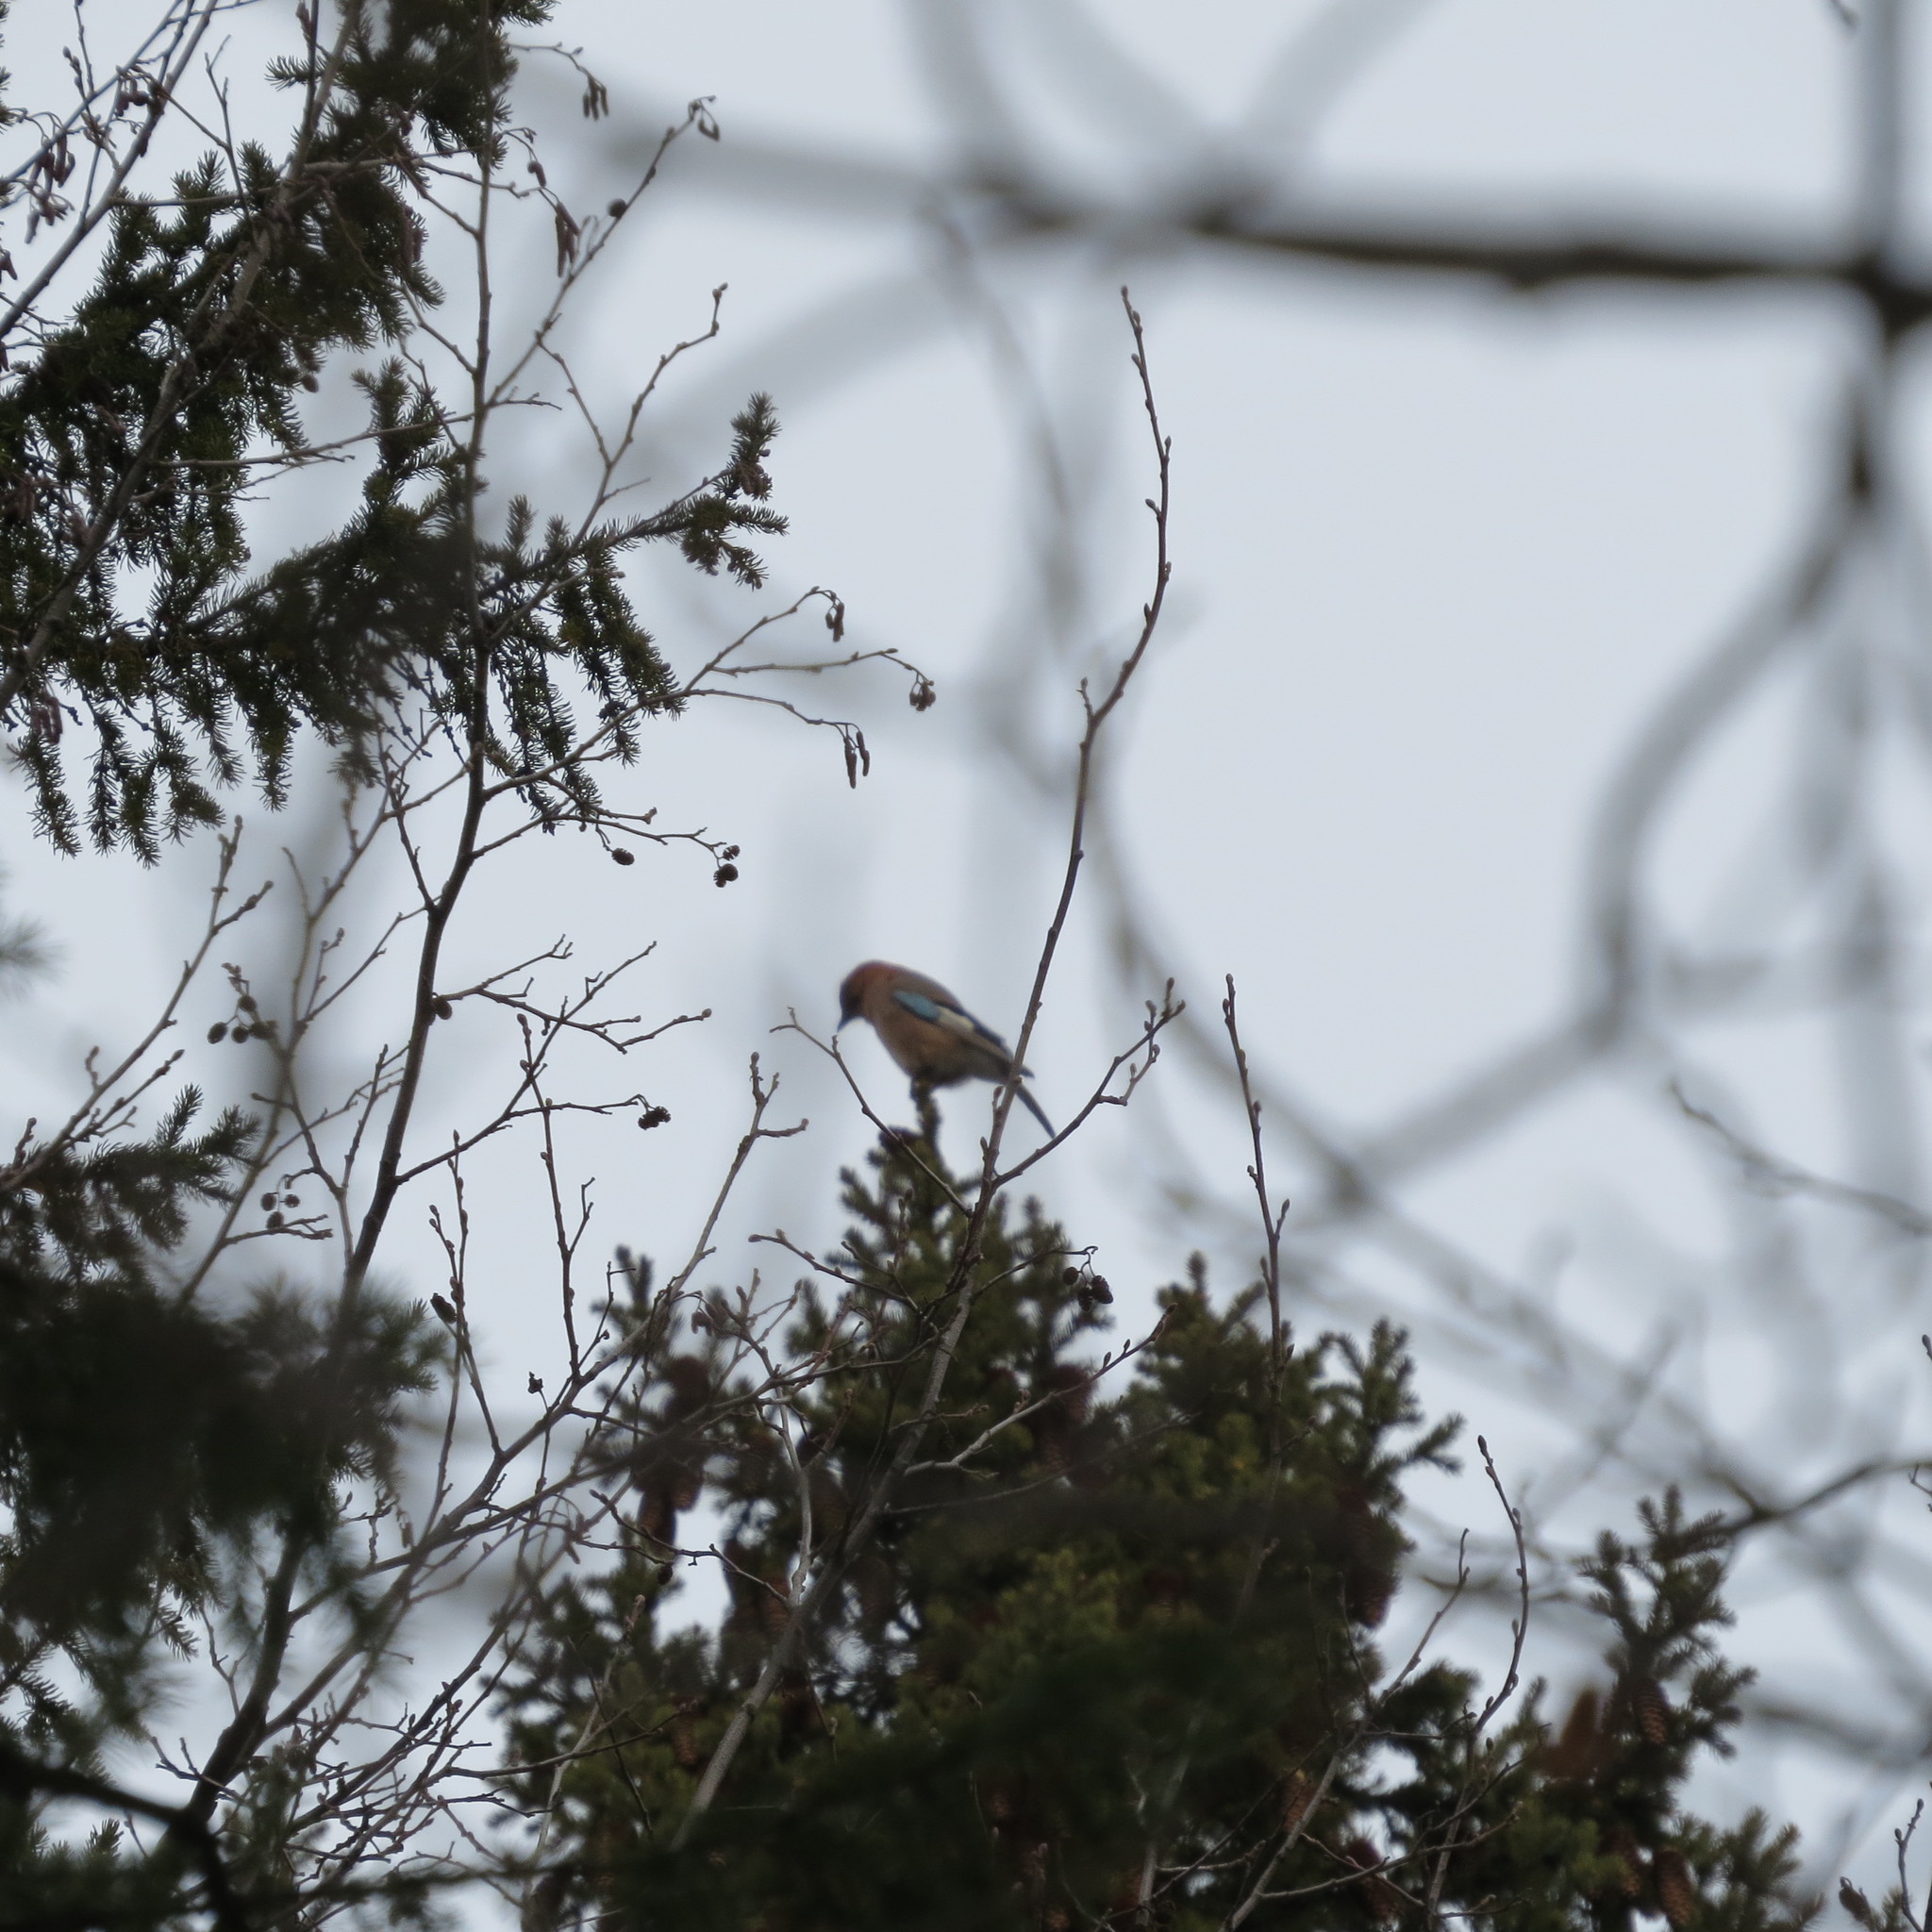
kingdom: Animalia
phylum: Chordata
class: Aves
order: Passeriformes
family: Corvidae
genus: Garrulus
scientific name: Garrulus glandarius
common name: Eurasian jay
